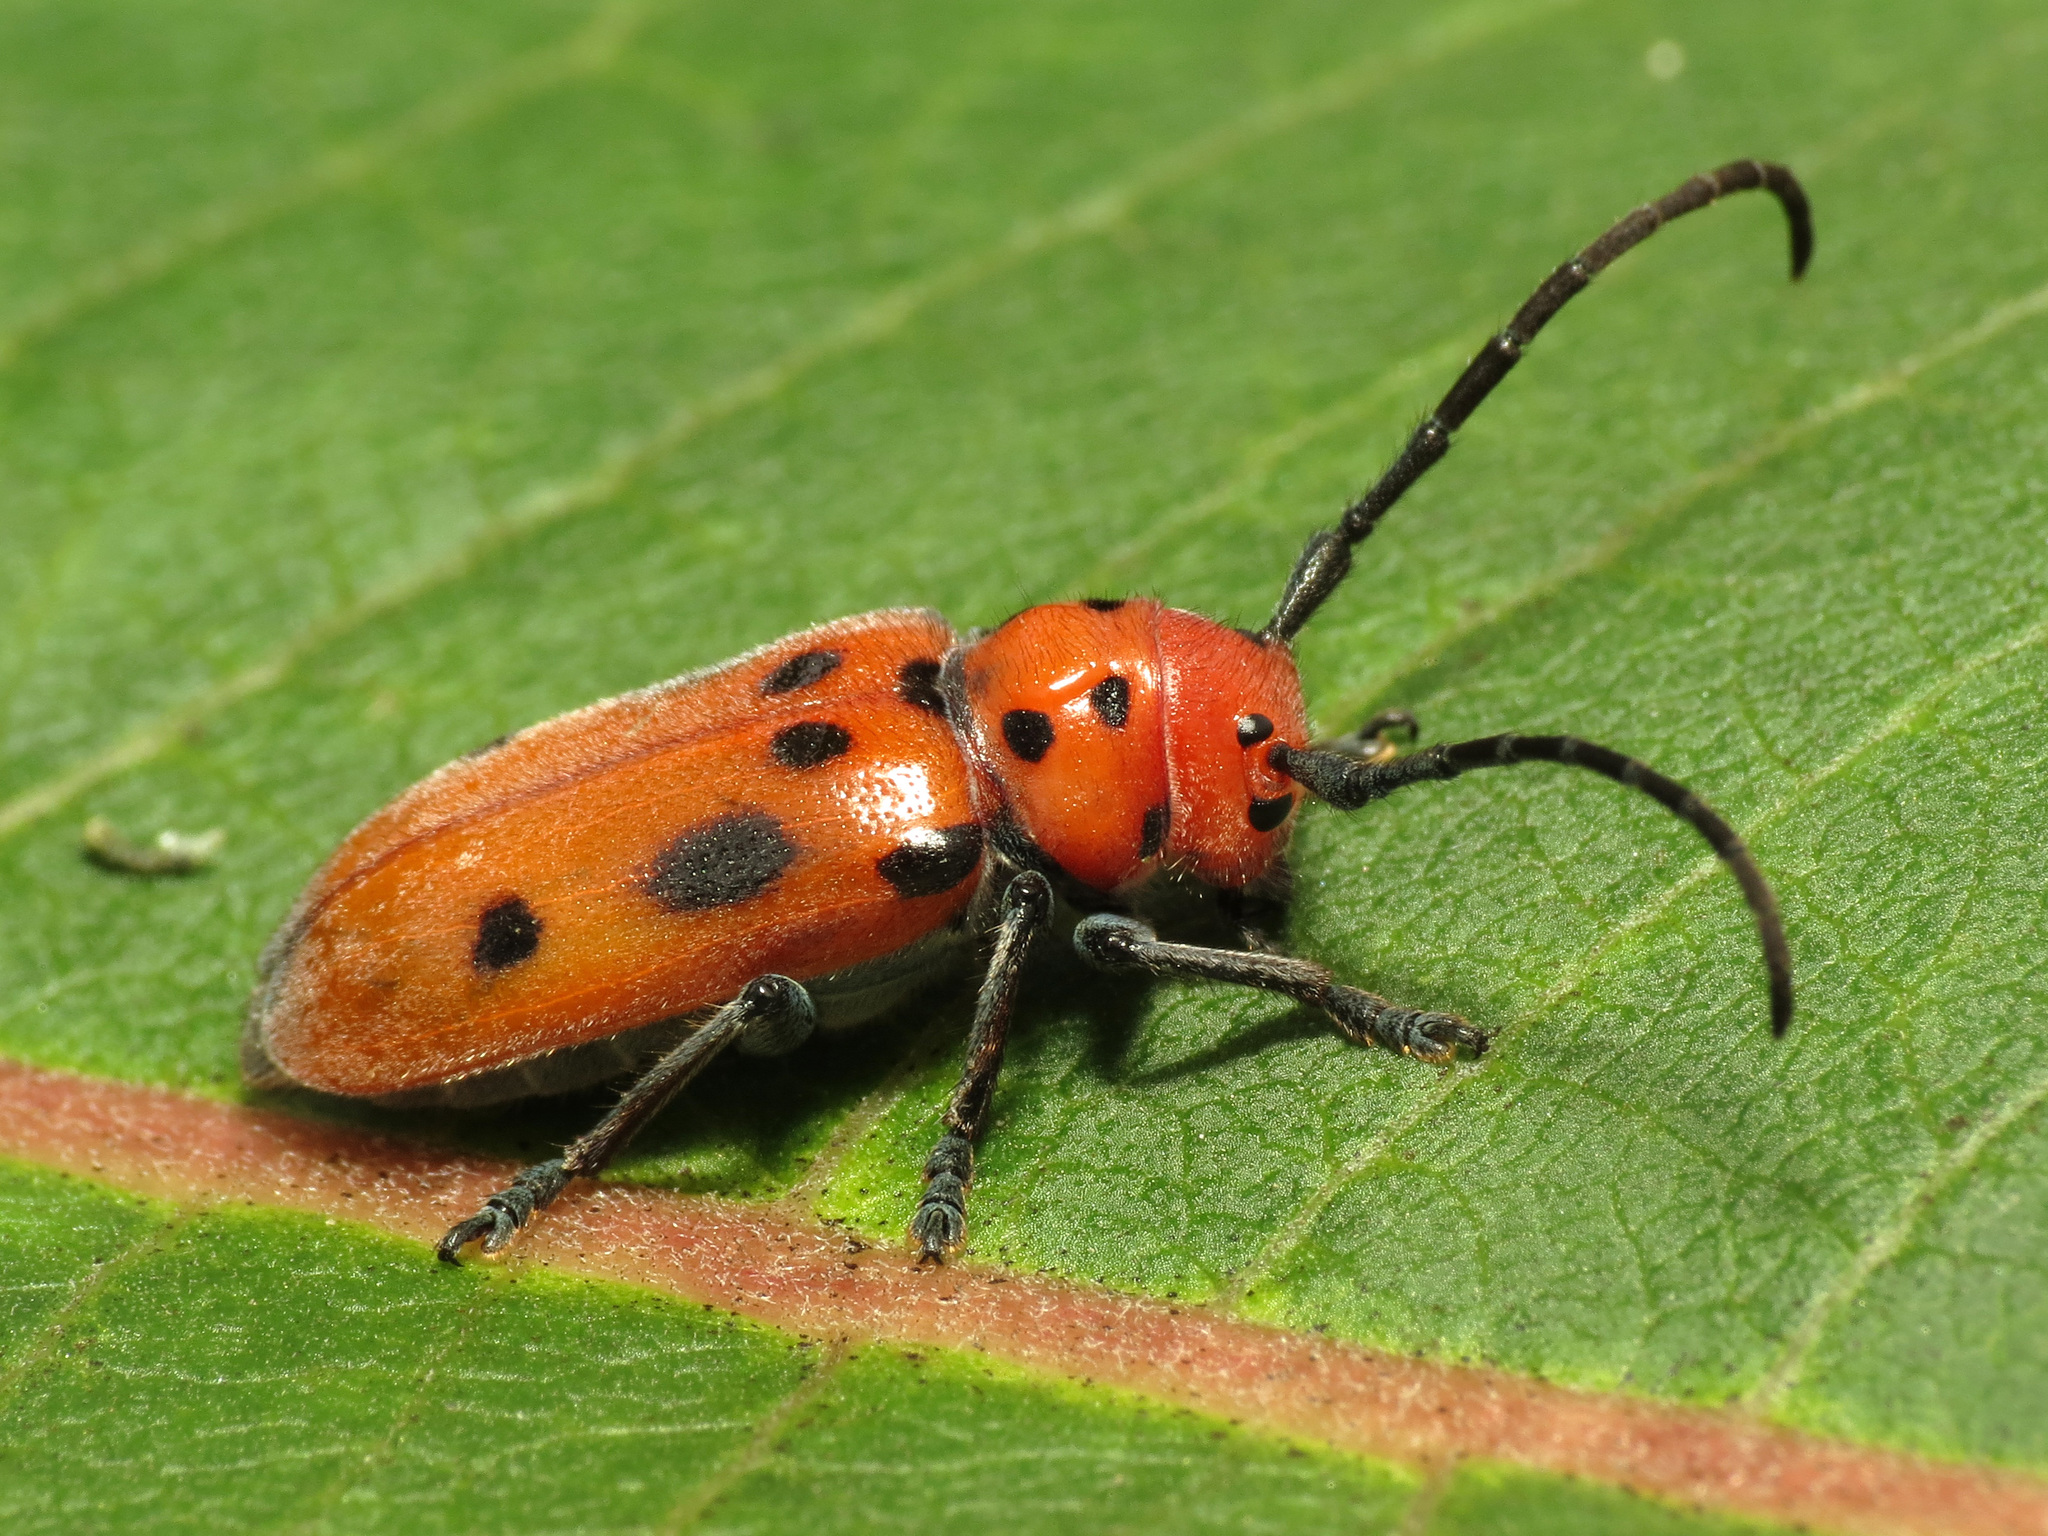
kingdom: Animalia
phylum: Arthropoda
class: Insecta
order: Coleoptera
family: Cerambycidae
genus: Tetraopes
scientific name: Tetraopes tetrophthalmus
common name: Red milkweed beetle
